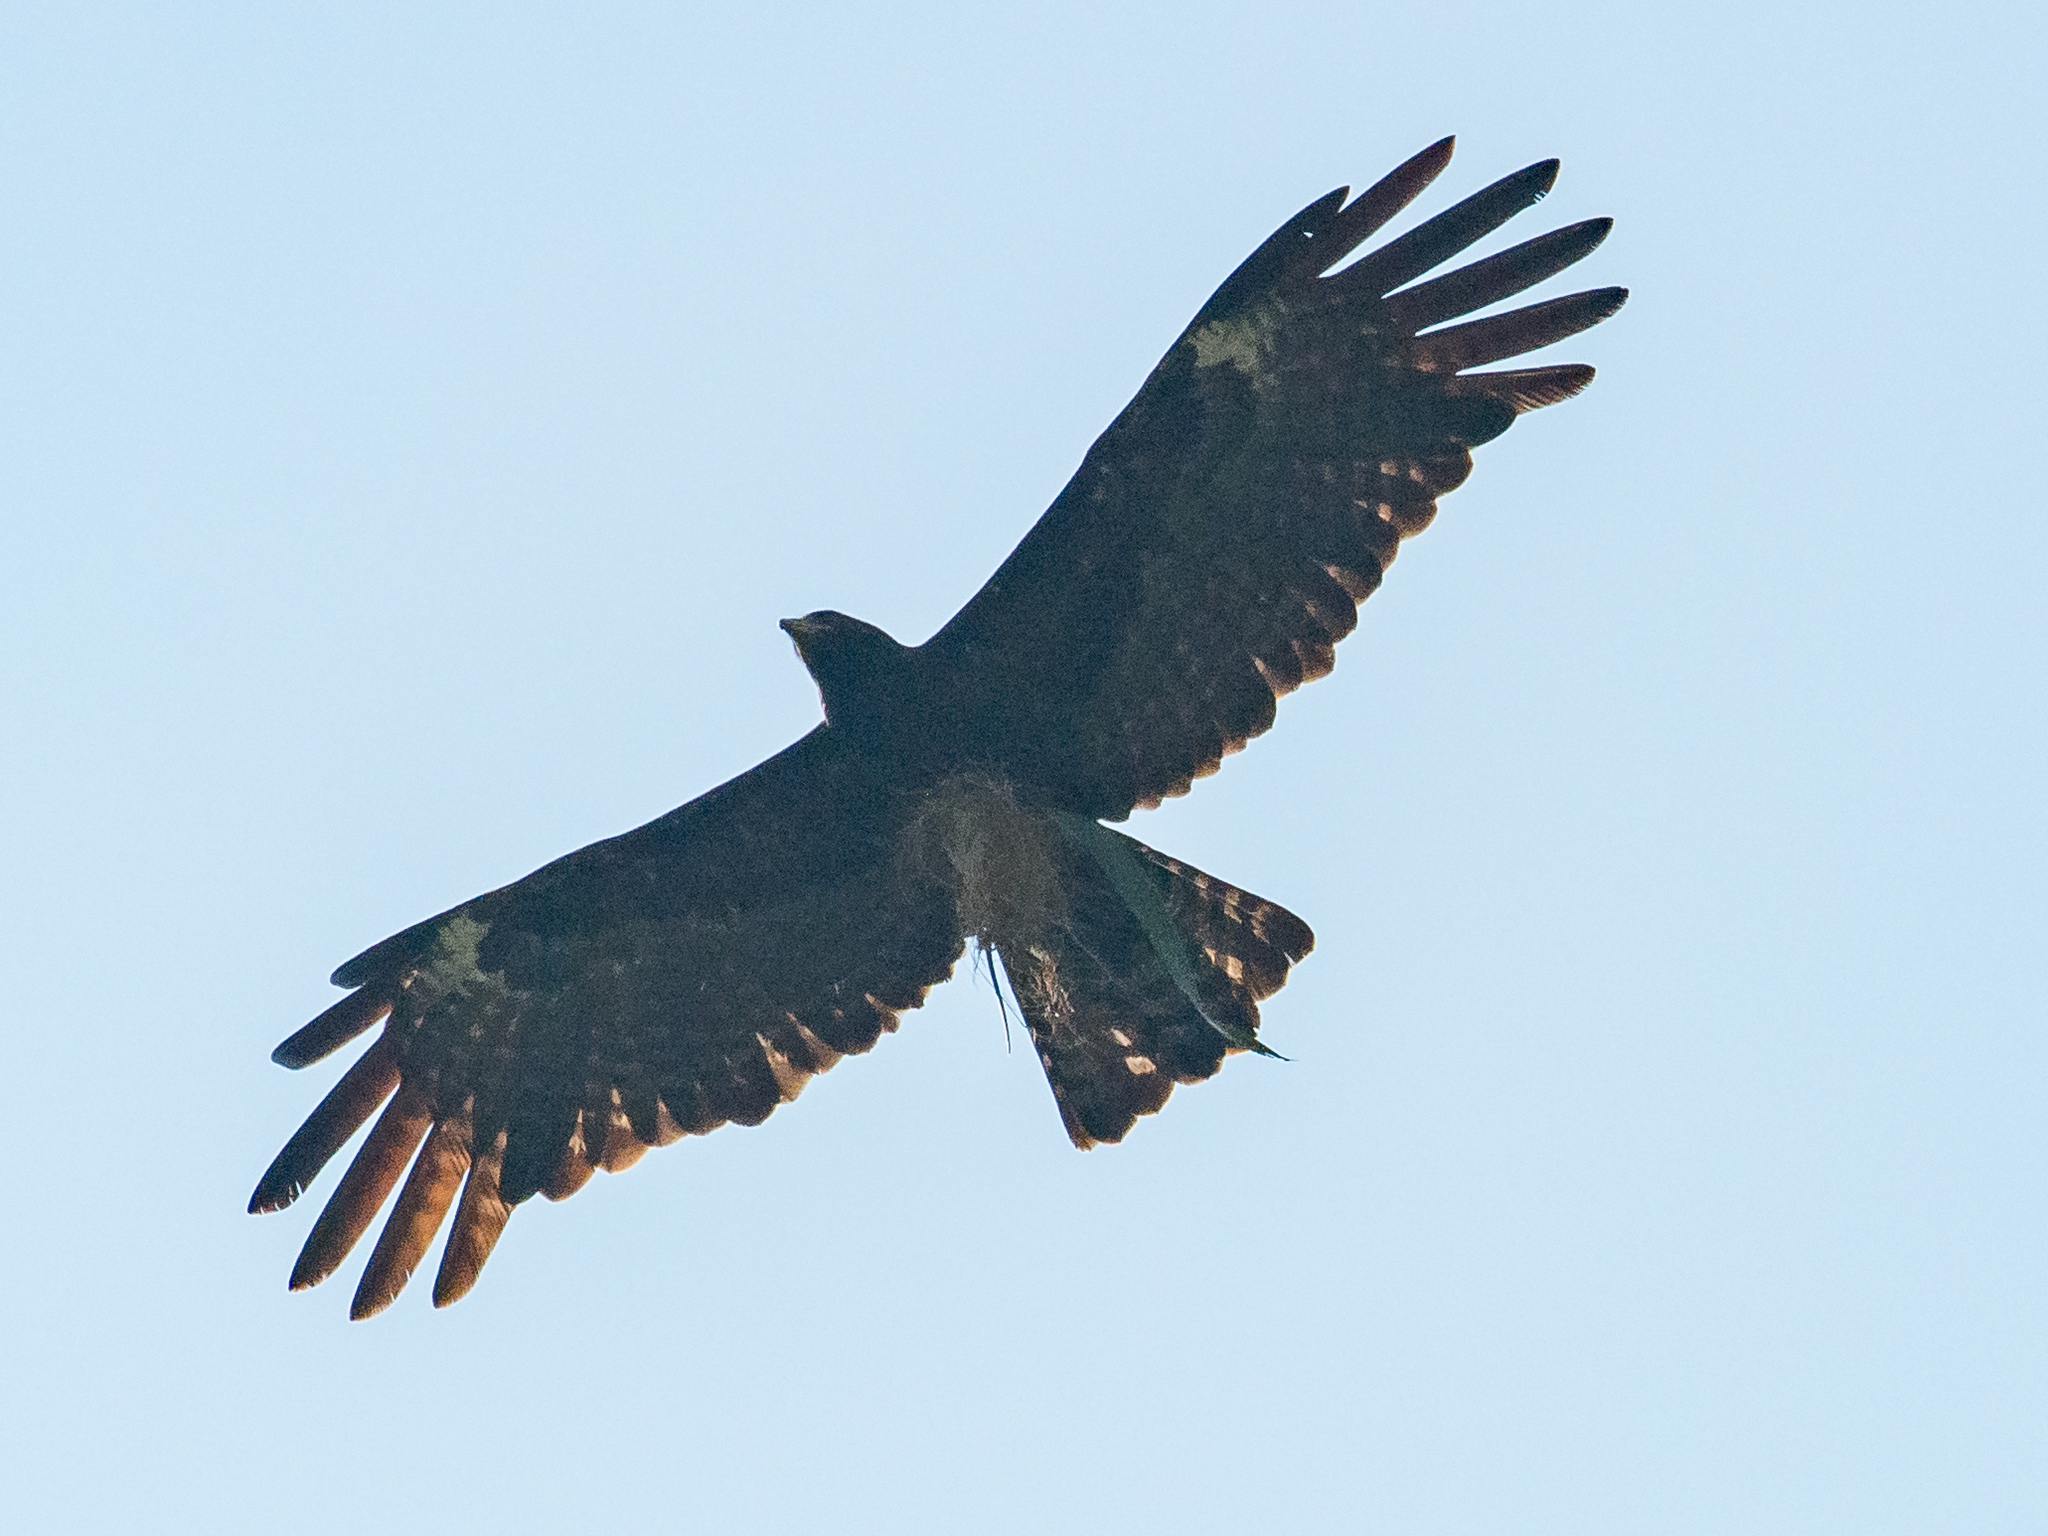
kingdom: Animalia
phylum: Chordata
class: Aves
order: Accipitriformes
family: Accipitridae
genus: Ictinaetus
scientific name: Ictinaetus malayensis
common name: Black eagle
